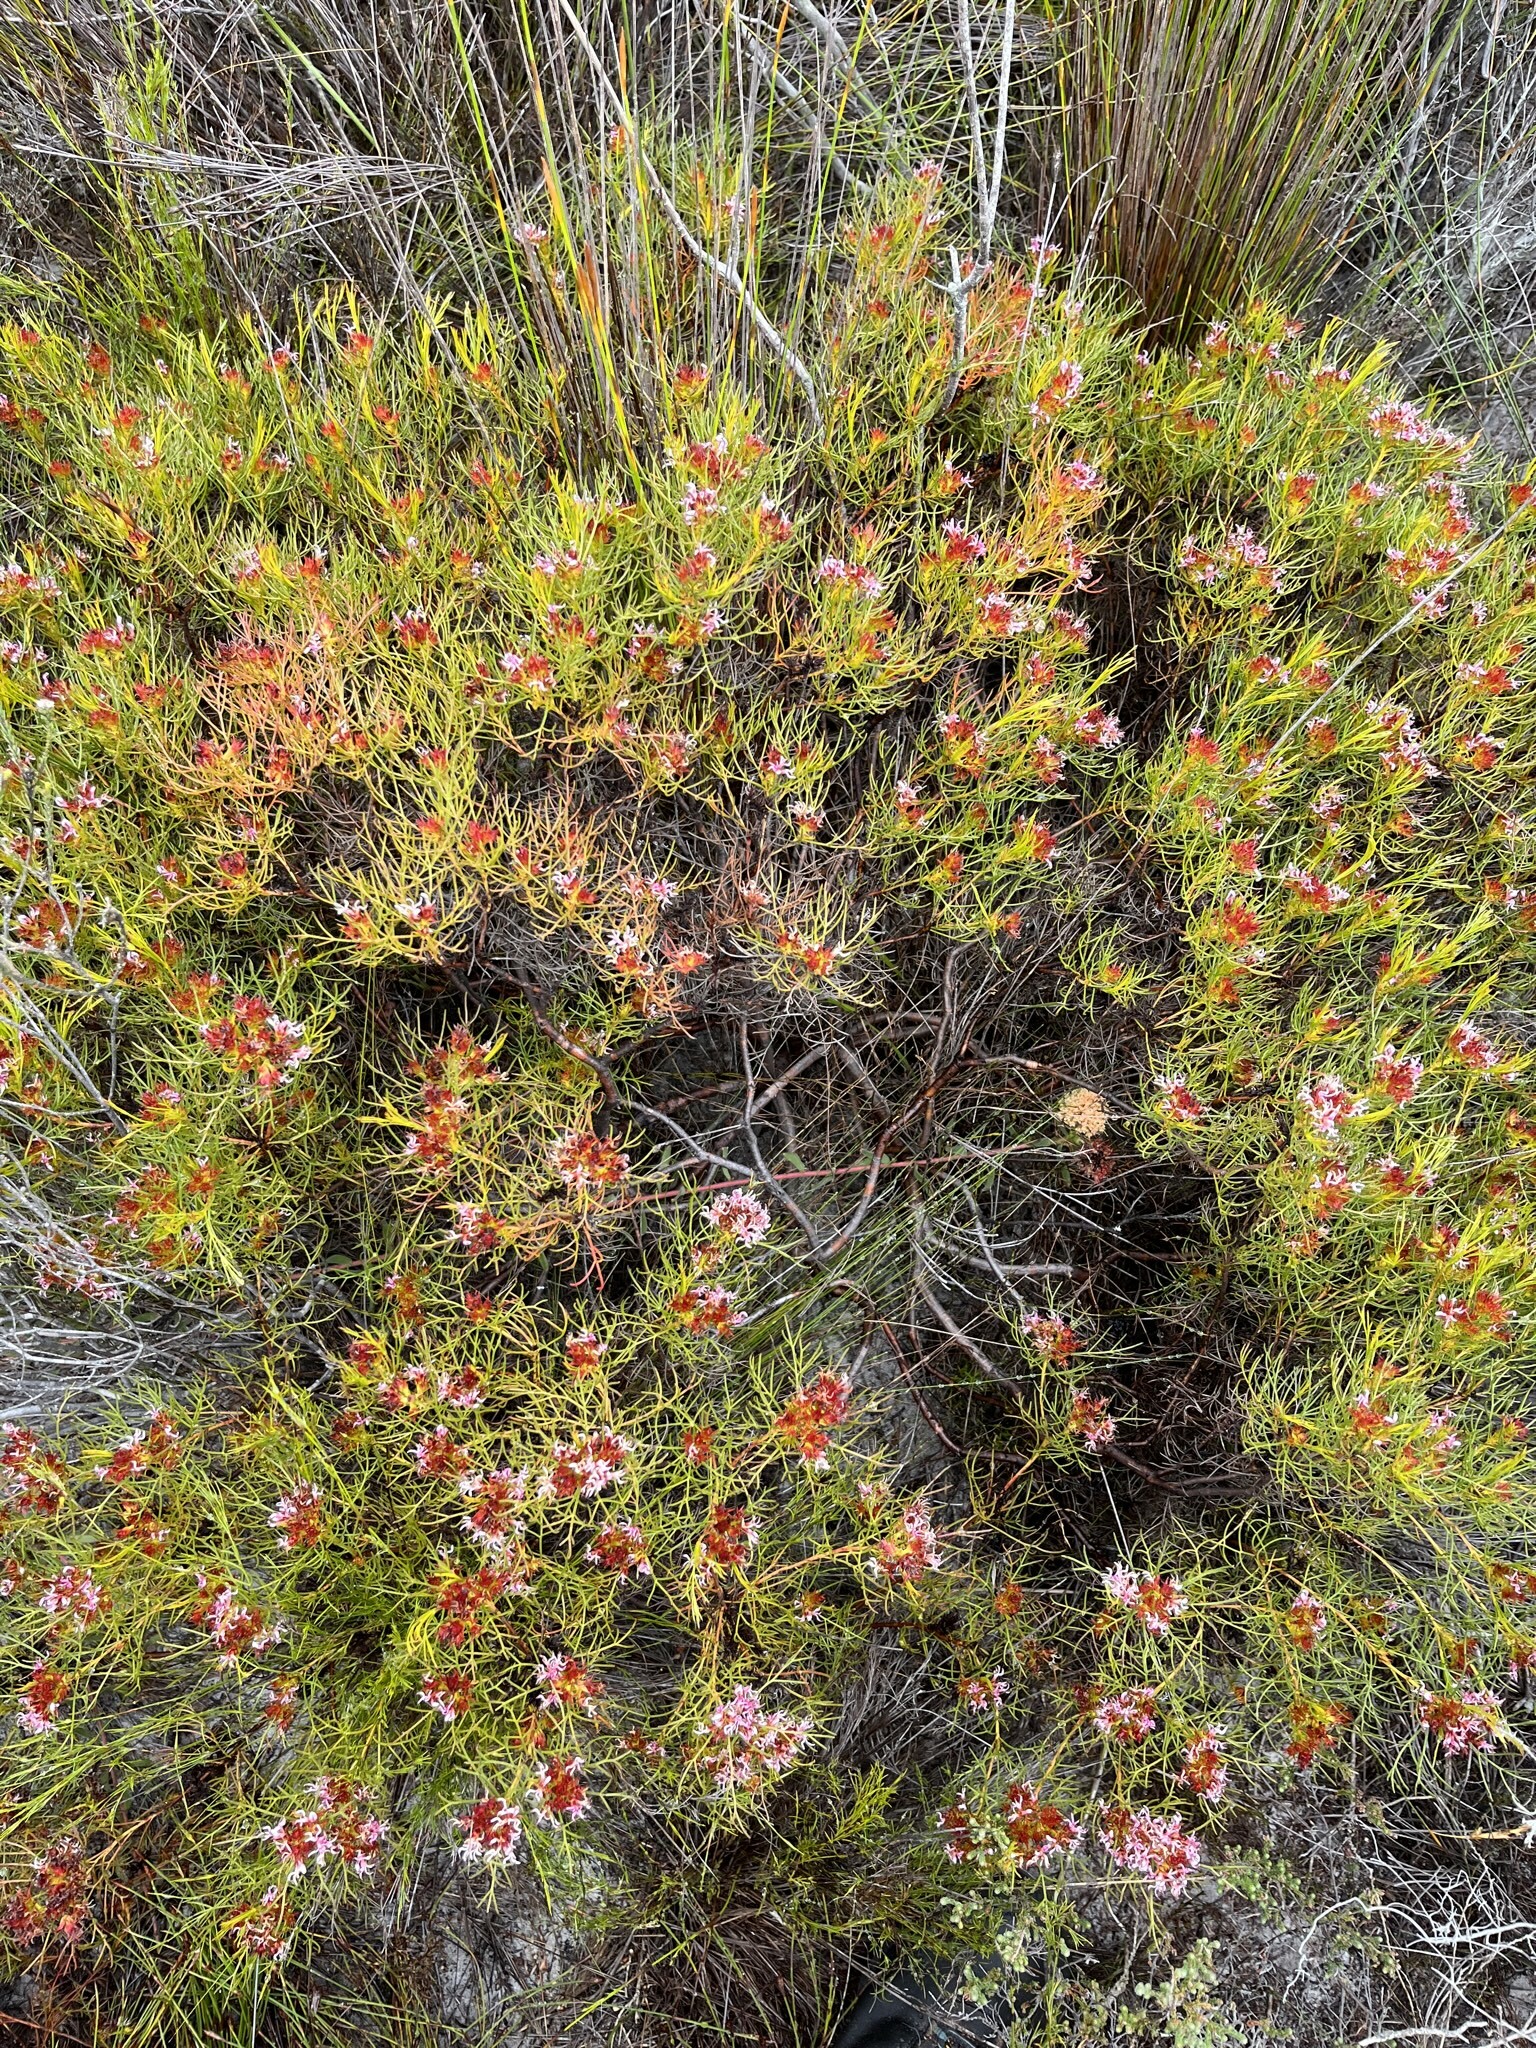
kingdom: Plantae
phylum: Tracheophyta
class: Magnoliopsida
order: Proteales
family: Proteaceae
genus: Serruria
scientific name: Serruria bolusii
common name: Agulhas spiderhead
